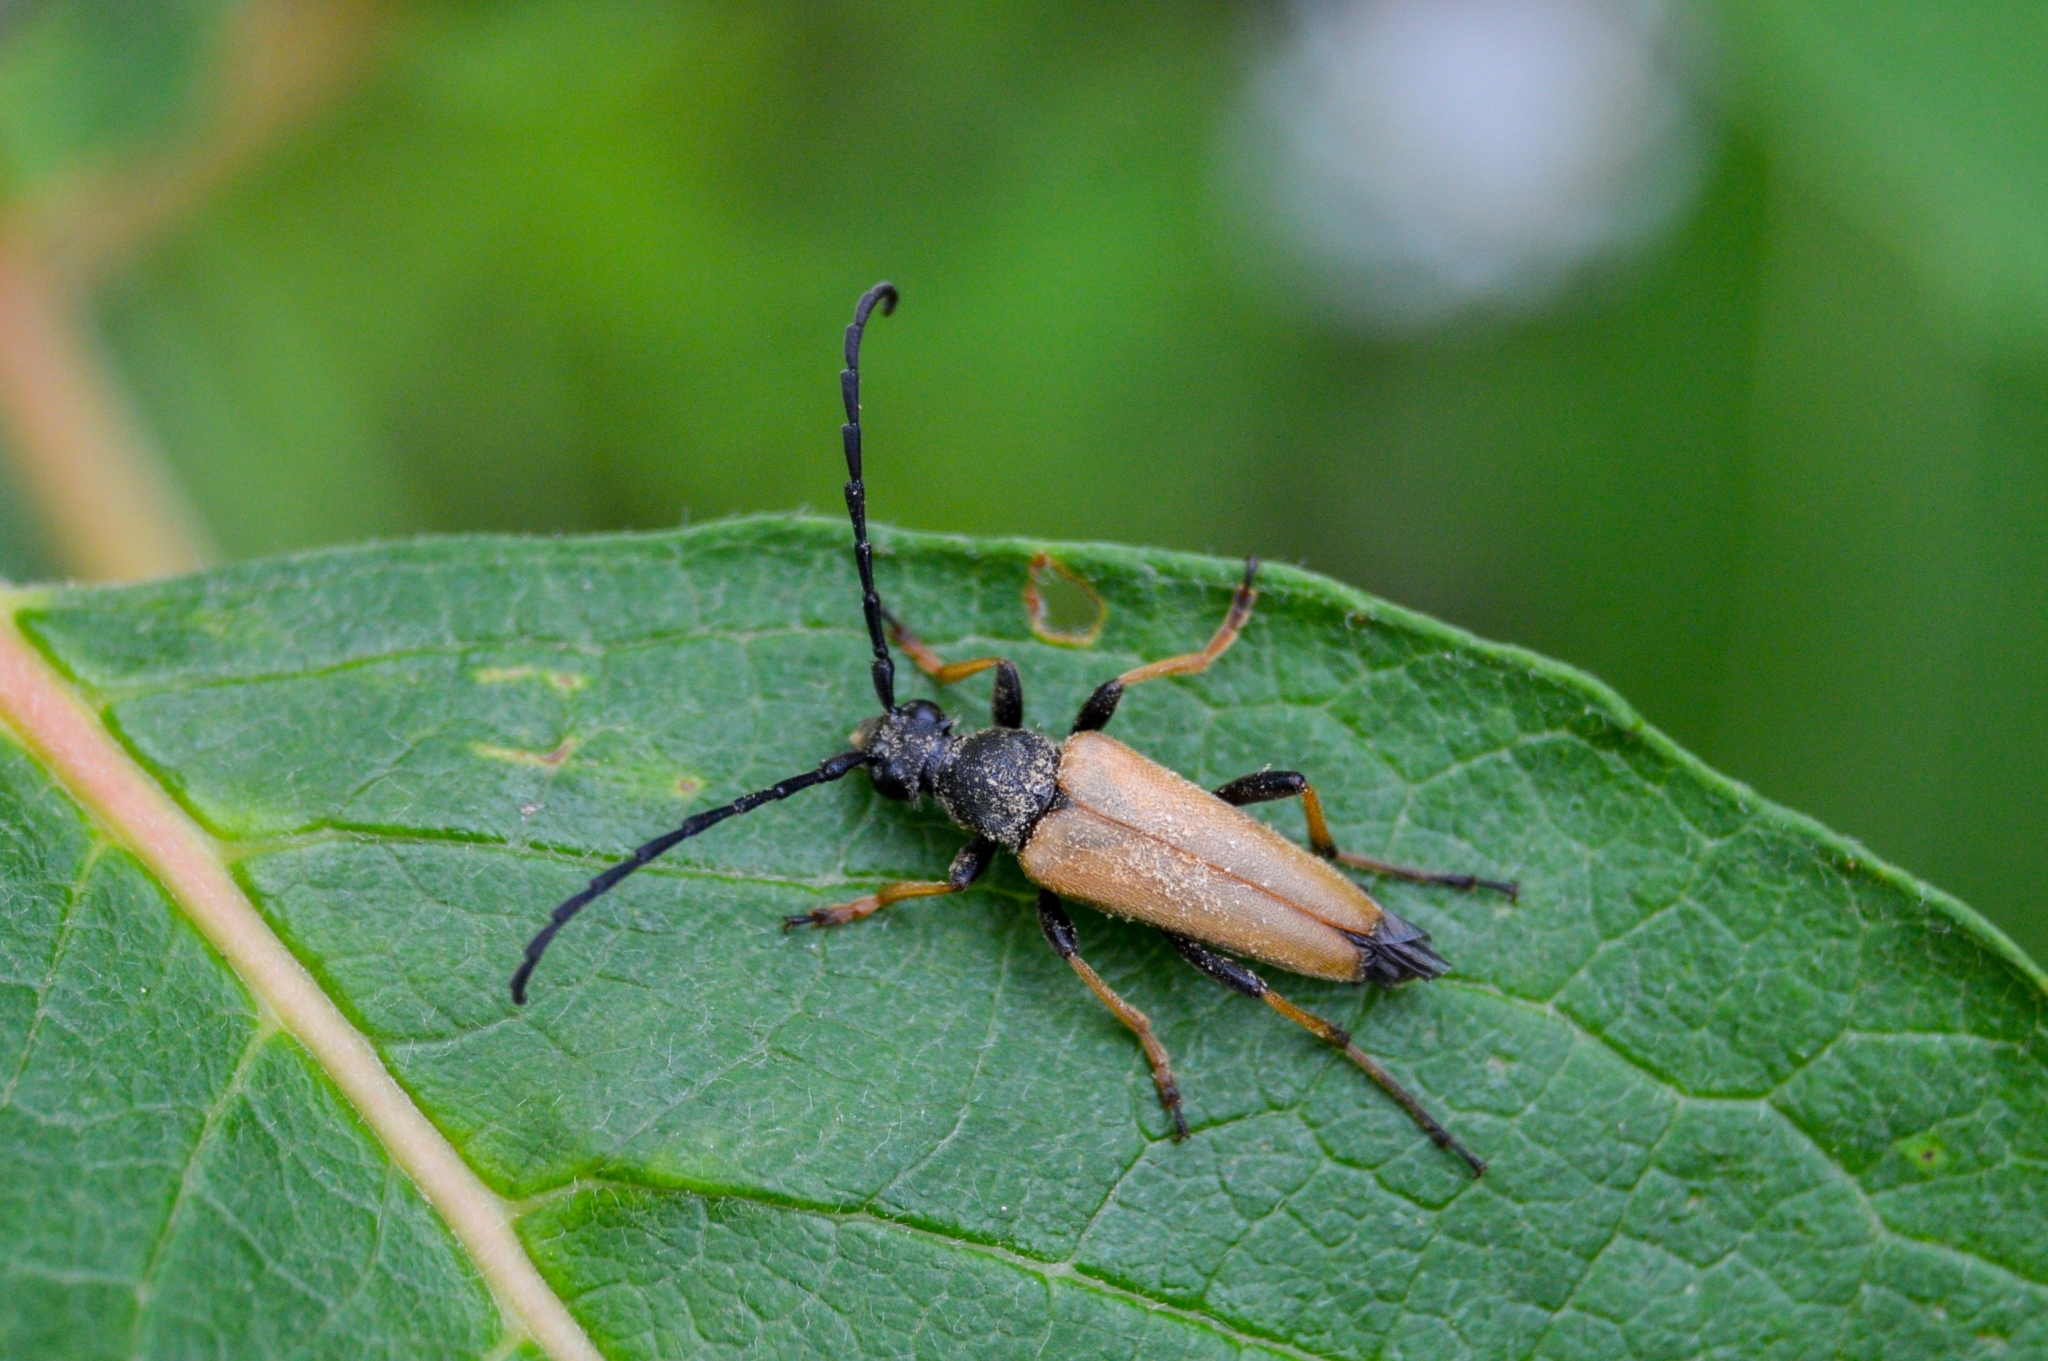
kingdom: Animalia
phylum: Arthropoda
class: Insecta
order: Coleoptera
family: Cerambycidae
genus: Stictoleptura
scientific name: Stictoleptura rubra
